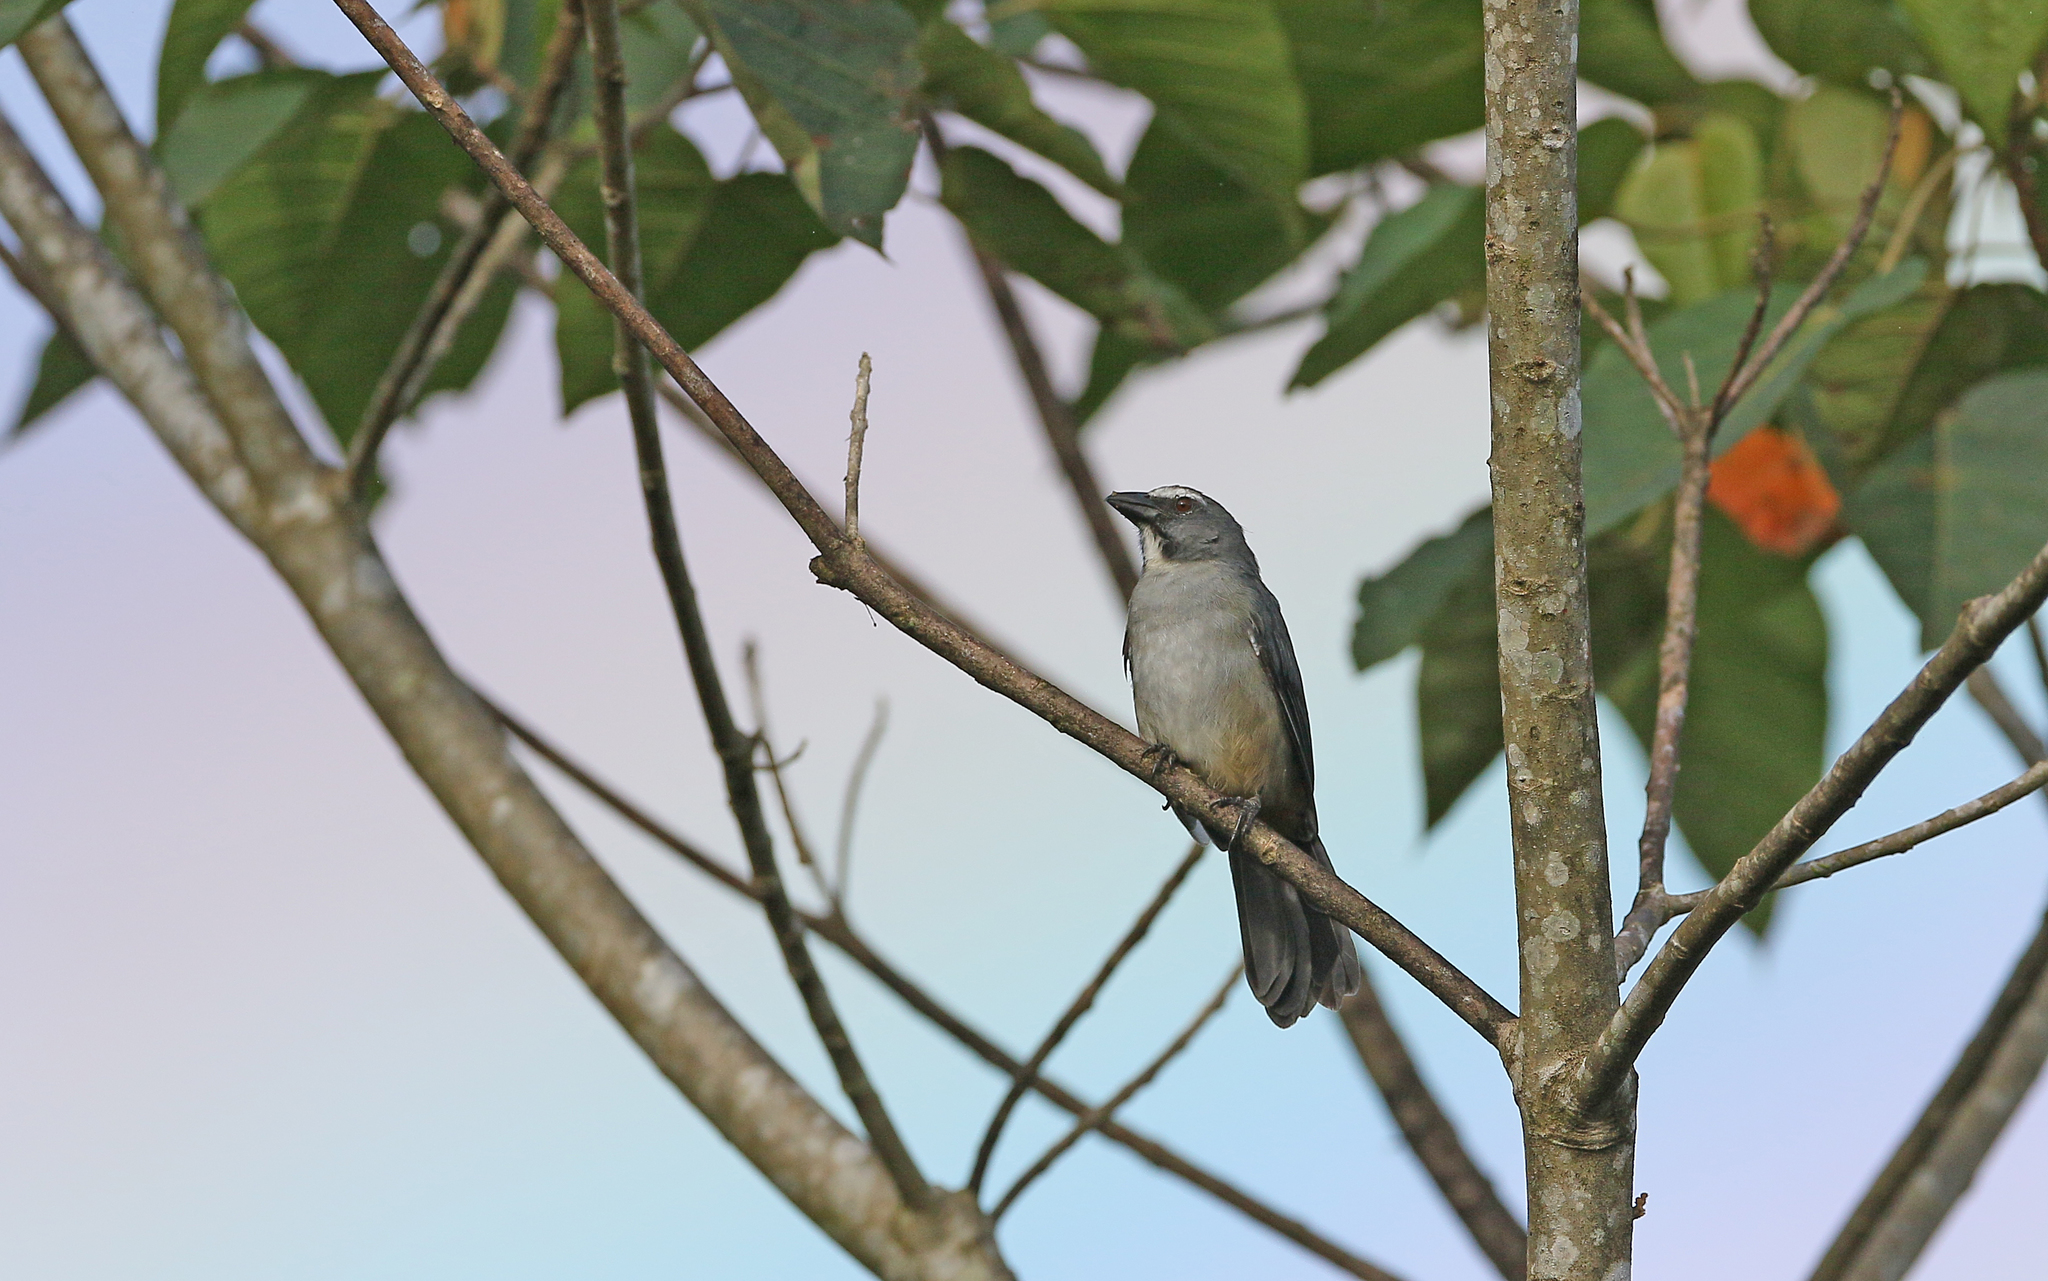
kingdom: Animalia
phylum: Chordata
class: Aves
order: Passeriformes
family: Thraupidae
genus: Saltator
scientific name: Saltator coerulescens
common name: Grayish saltator
